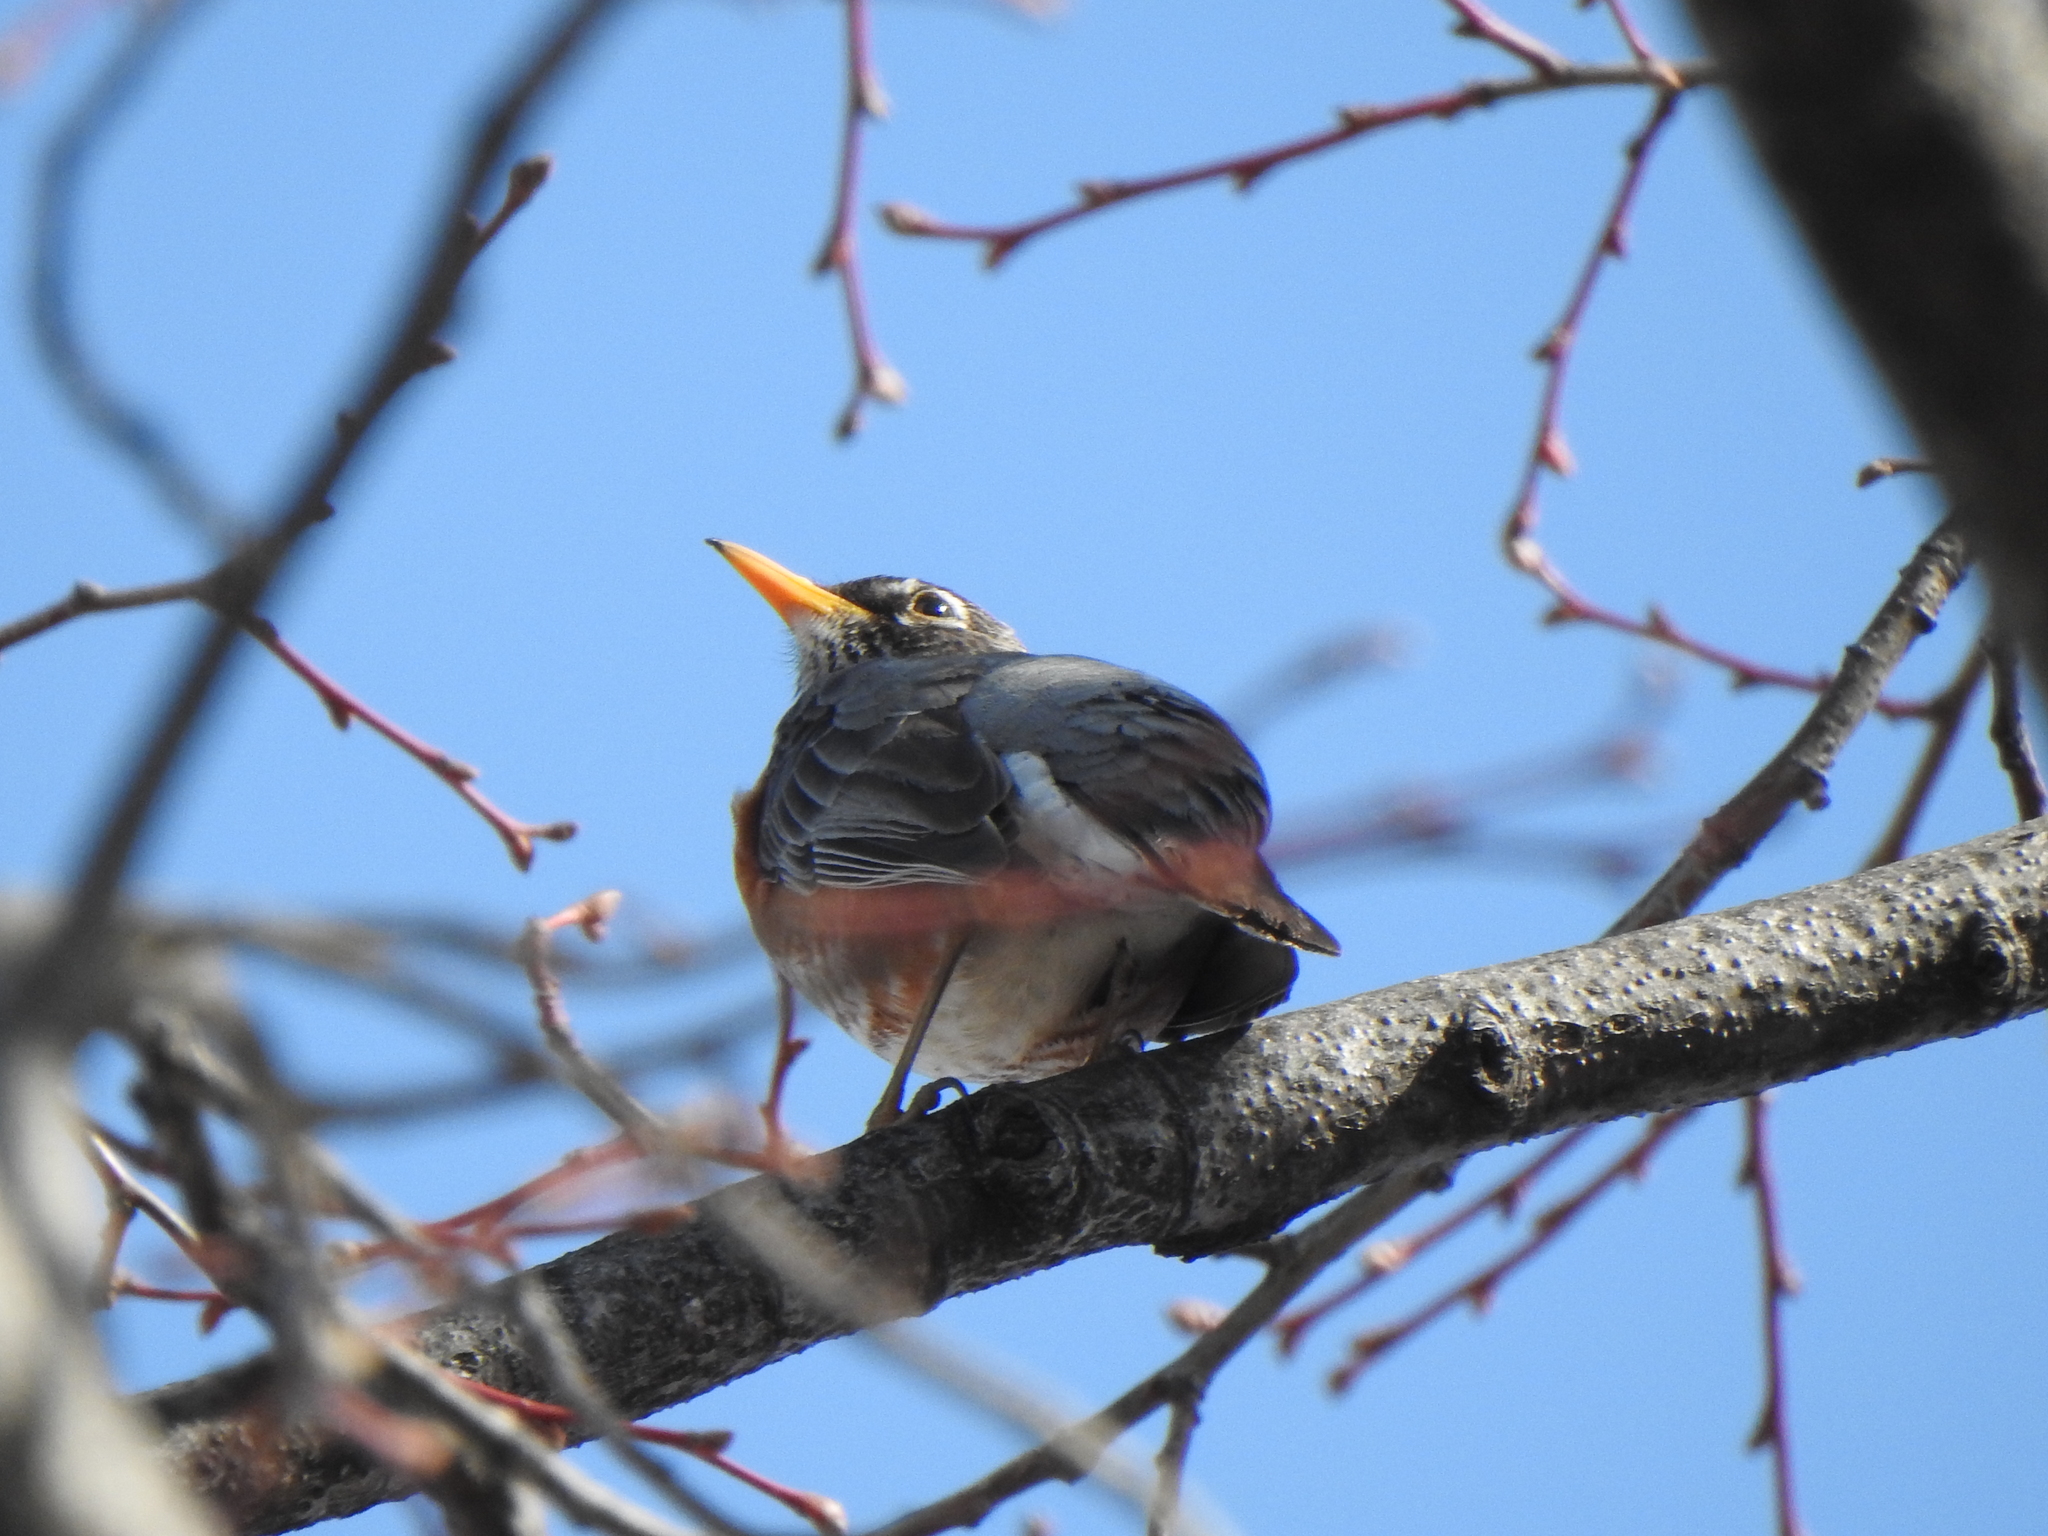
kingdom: Animalia
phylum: Chordata
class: Aves
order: Passeriformes
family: Turdidae
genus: Turdus
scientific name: Turdus migratorius
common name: American robin
